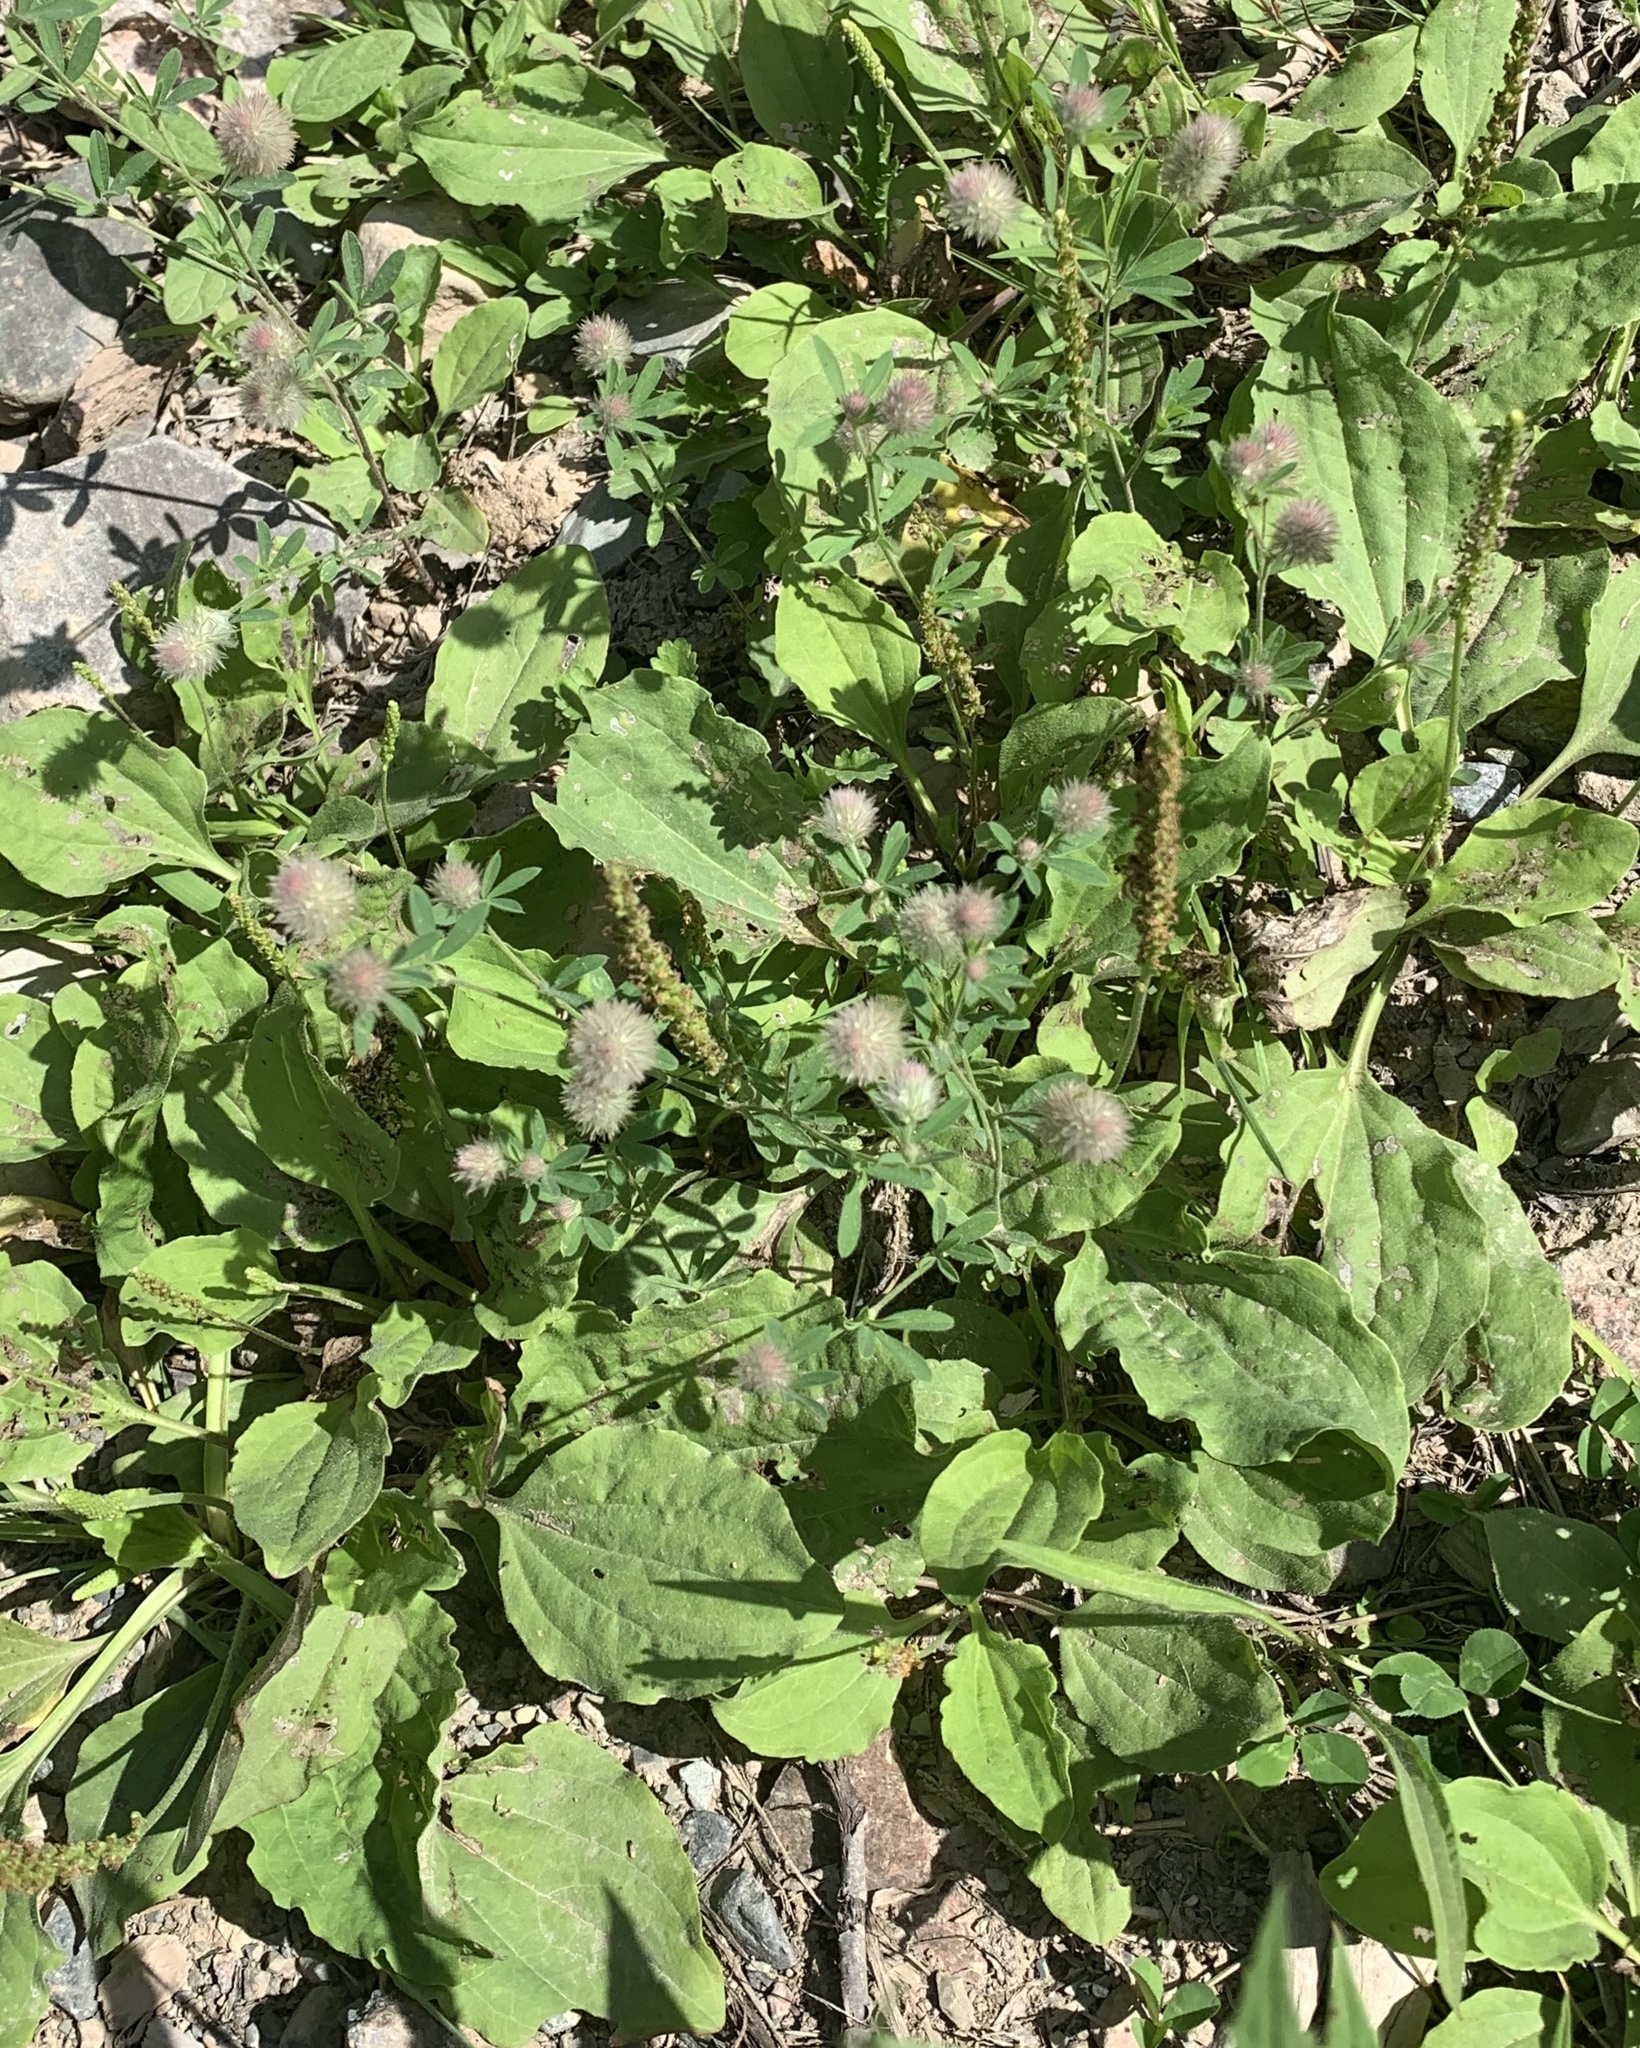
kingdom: Plantae
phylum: Tracheophyta
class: Magnoliopsida
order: Fabales
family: Fabaceae
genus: Trifolium
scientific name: Trifolium arvense
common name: Hare's-foot clover
